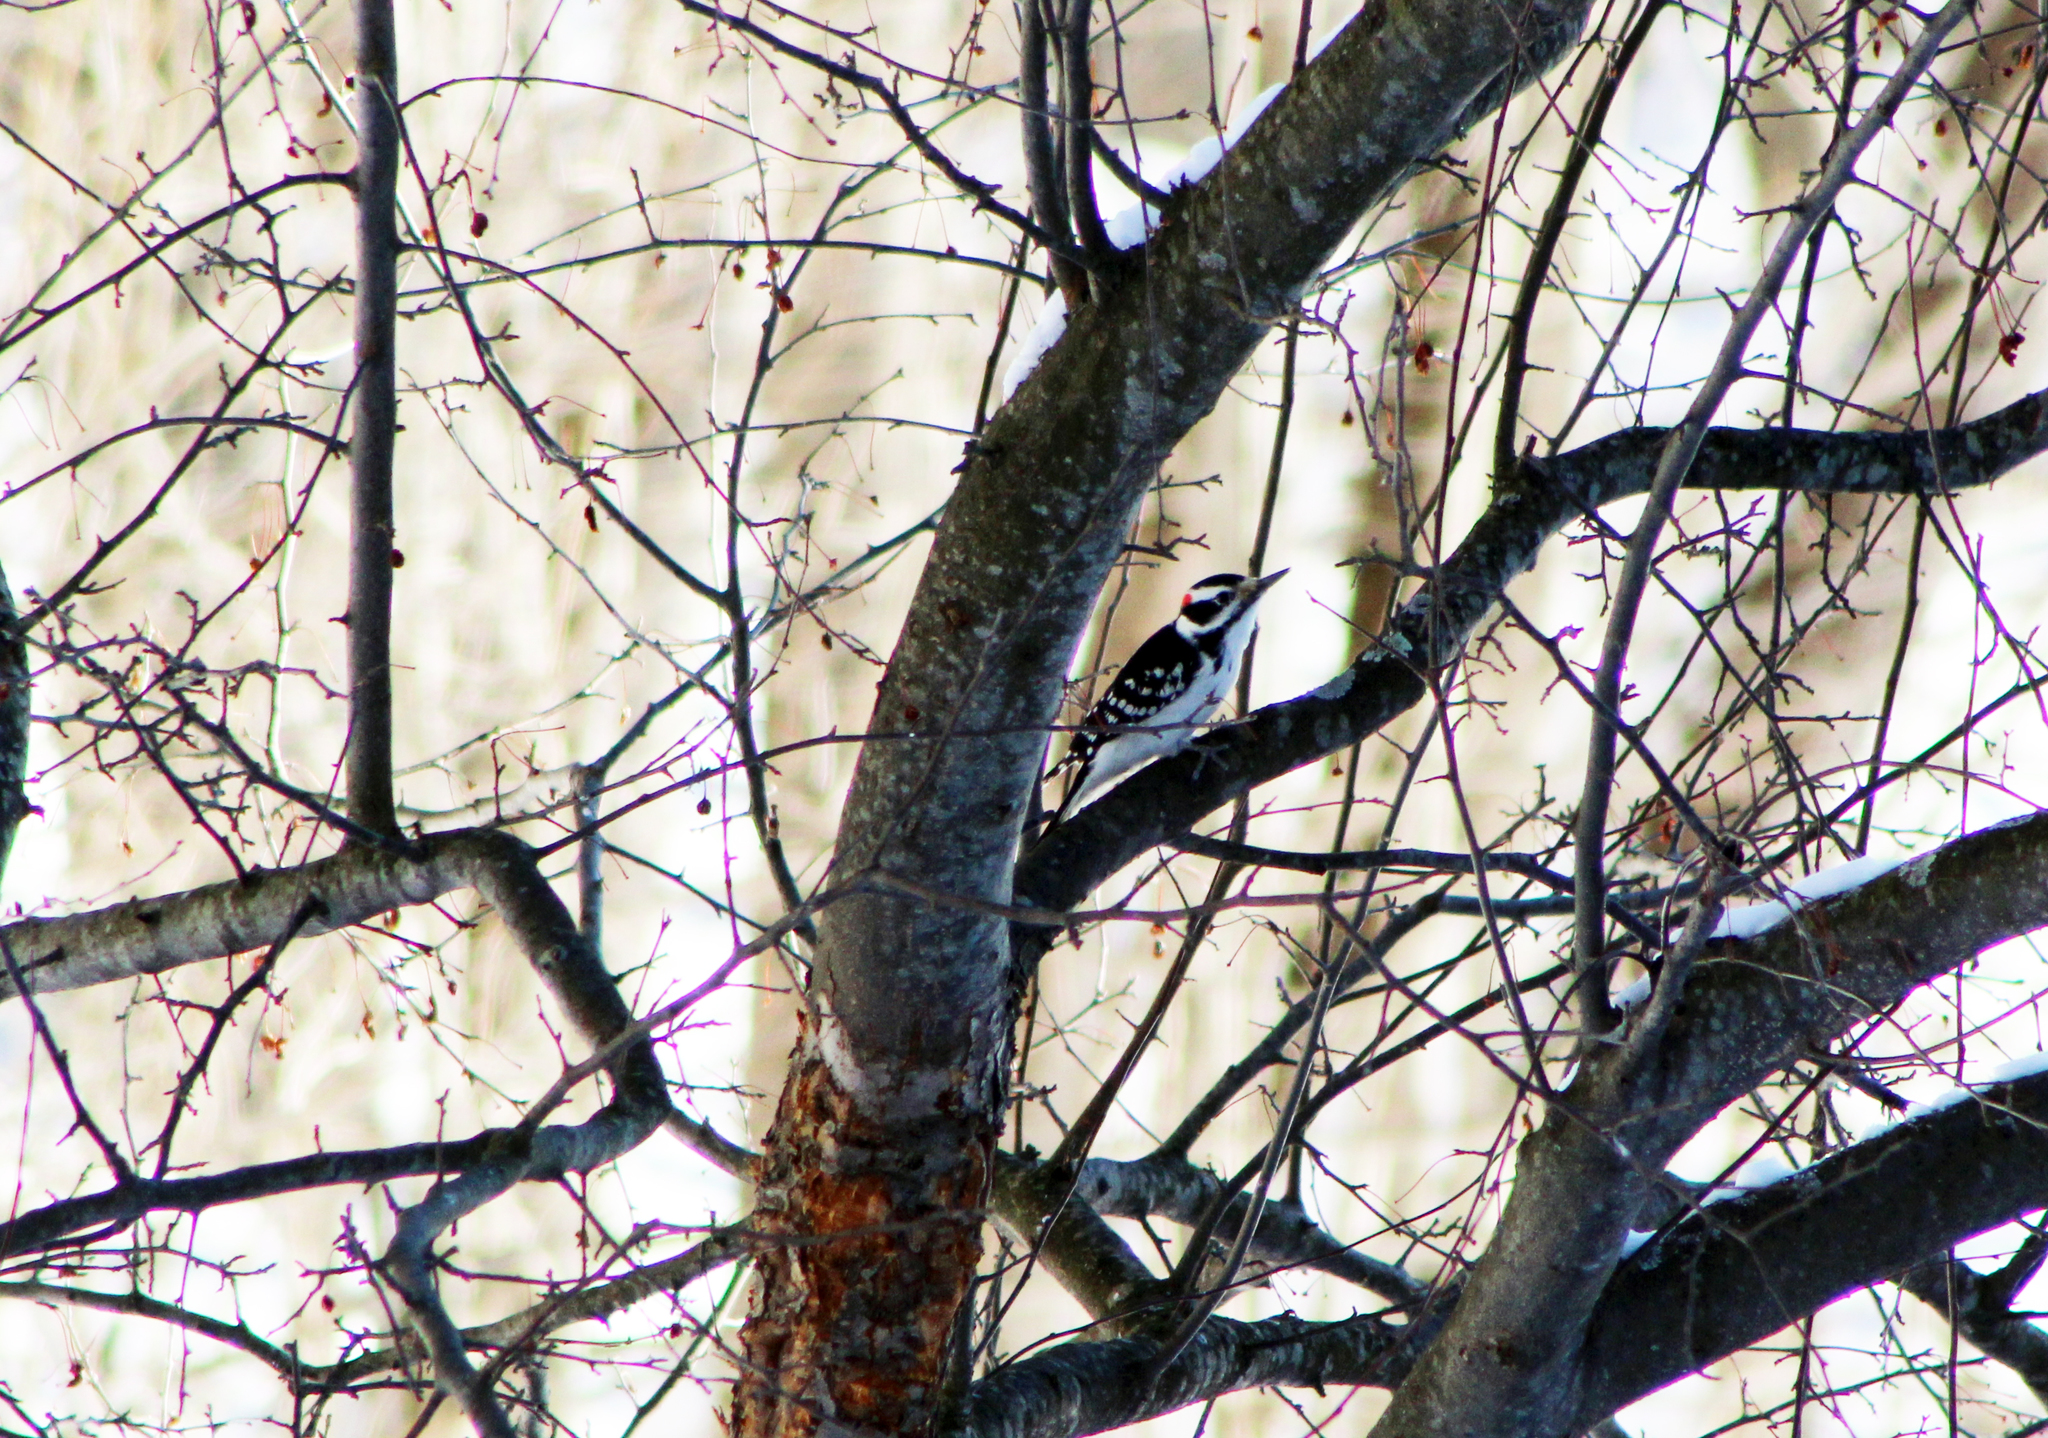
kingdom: Animalia
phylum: Chordata
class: Aves
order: Piciformes
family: Picidae
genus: Leuconotopicus
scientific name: Leuconotopicus villosus
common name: Hairy woodpecker
